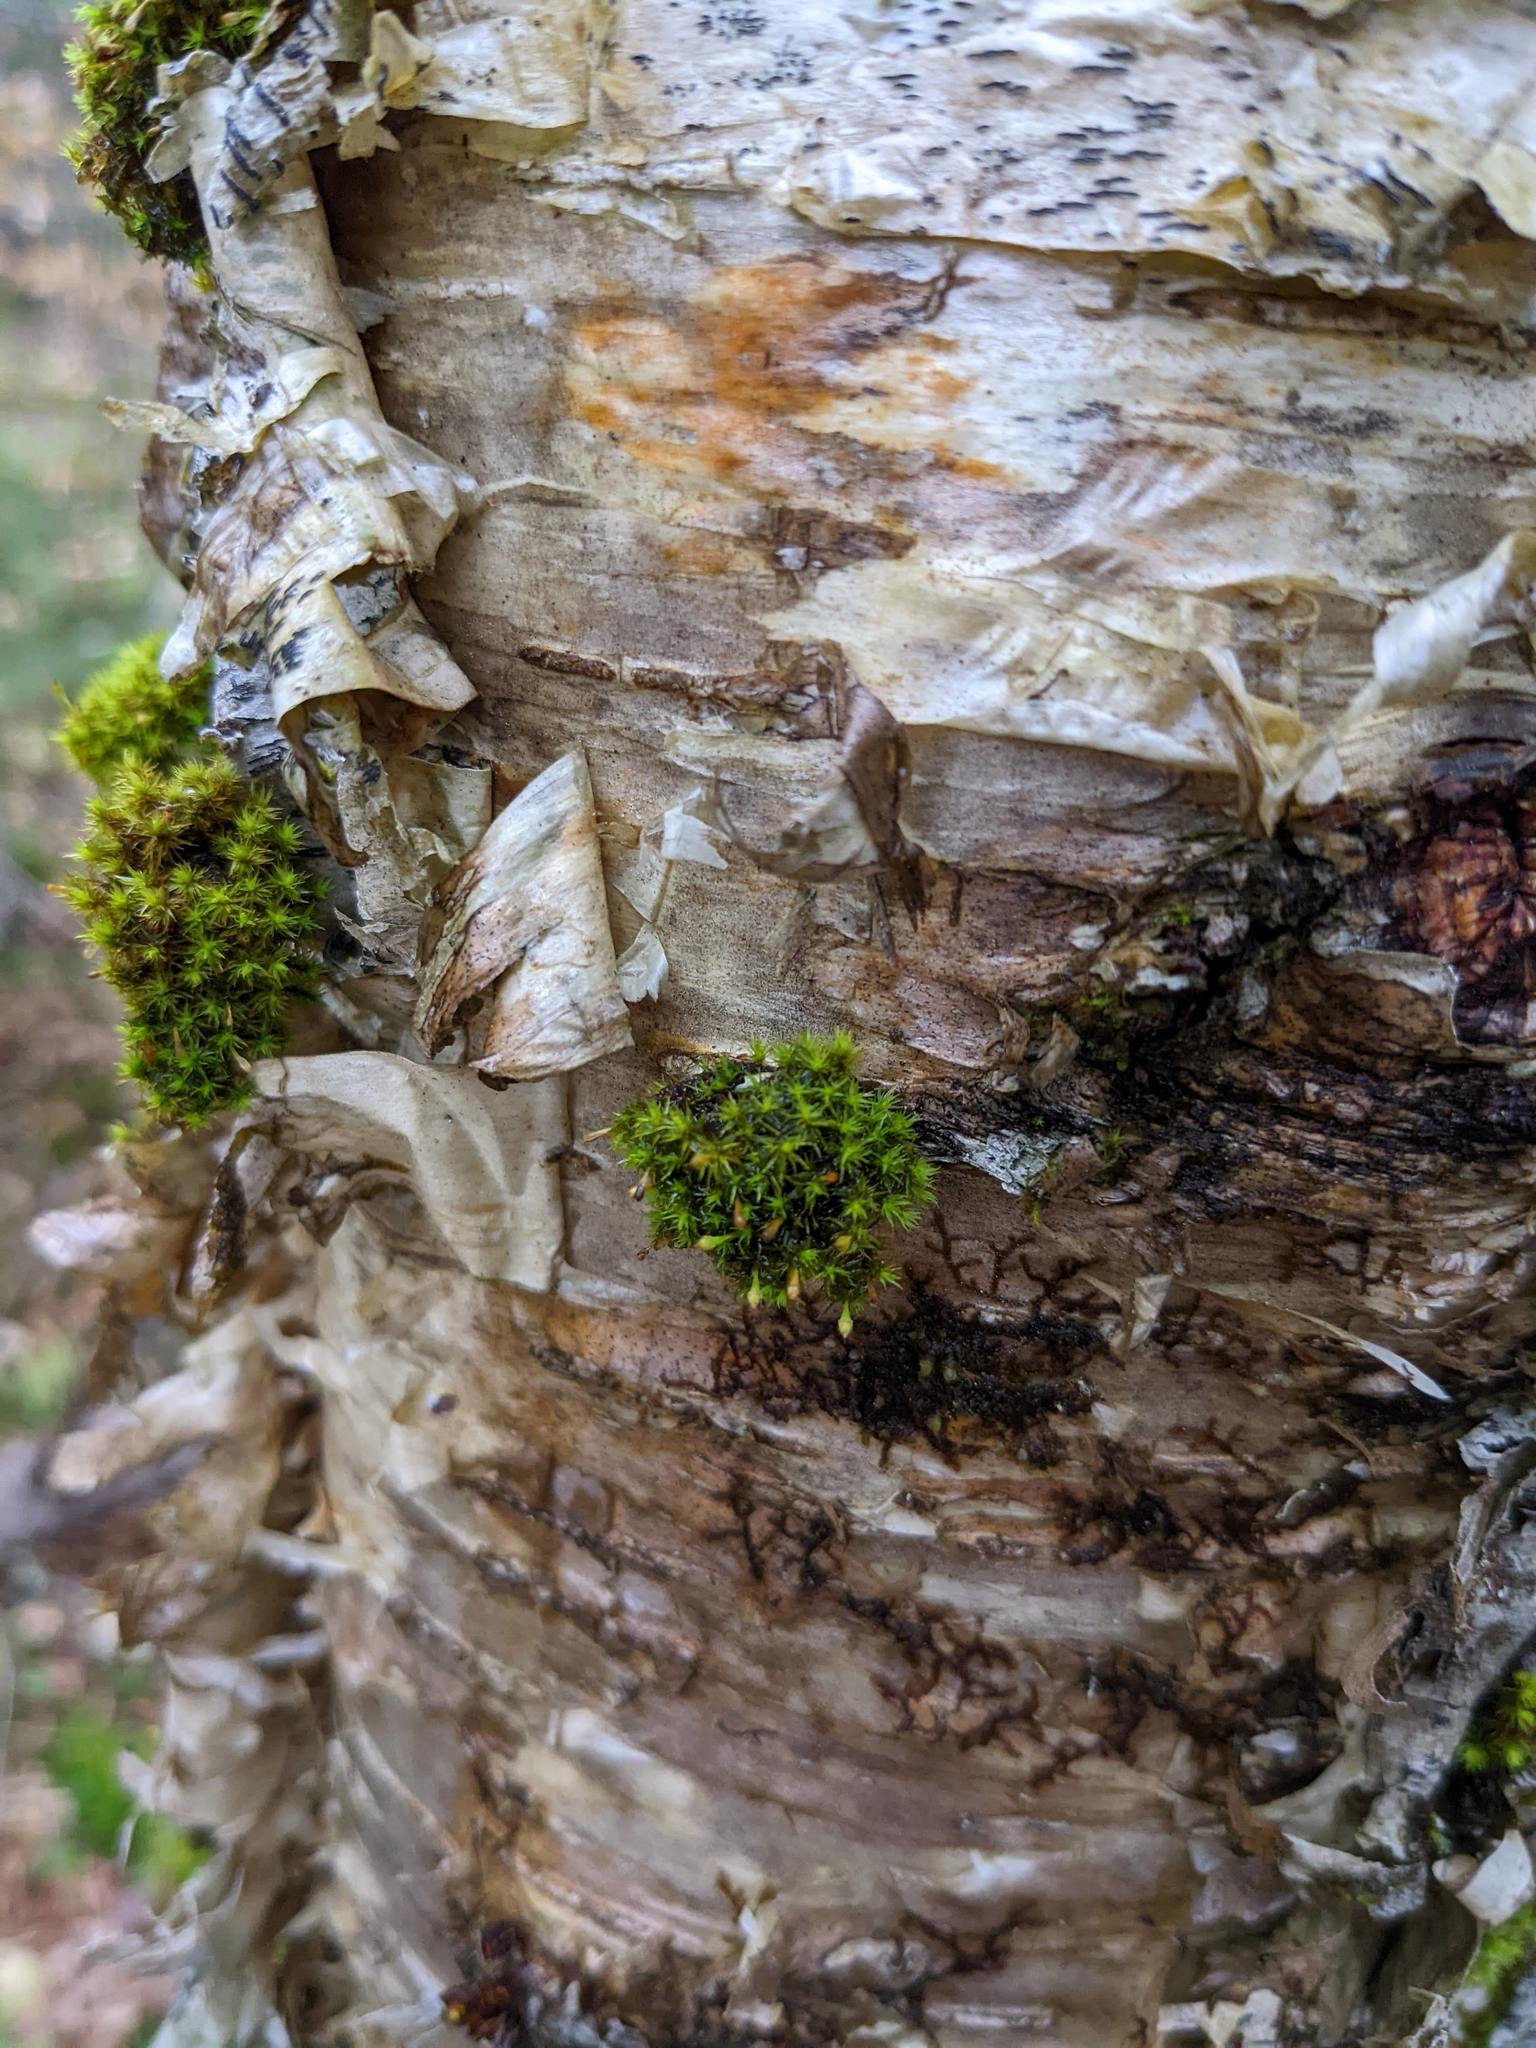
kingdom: Plantae
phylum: Bryophyta
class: Bryopsida
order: Orthotrichales
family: Orthotrichaceae
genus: Ulota
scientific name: Ulota crispa
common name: Crisped pincushion moss
